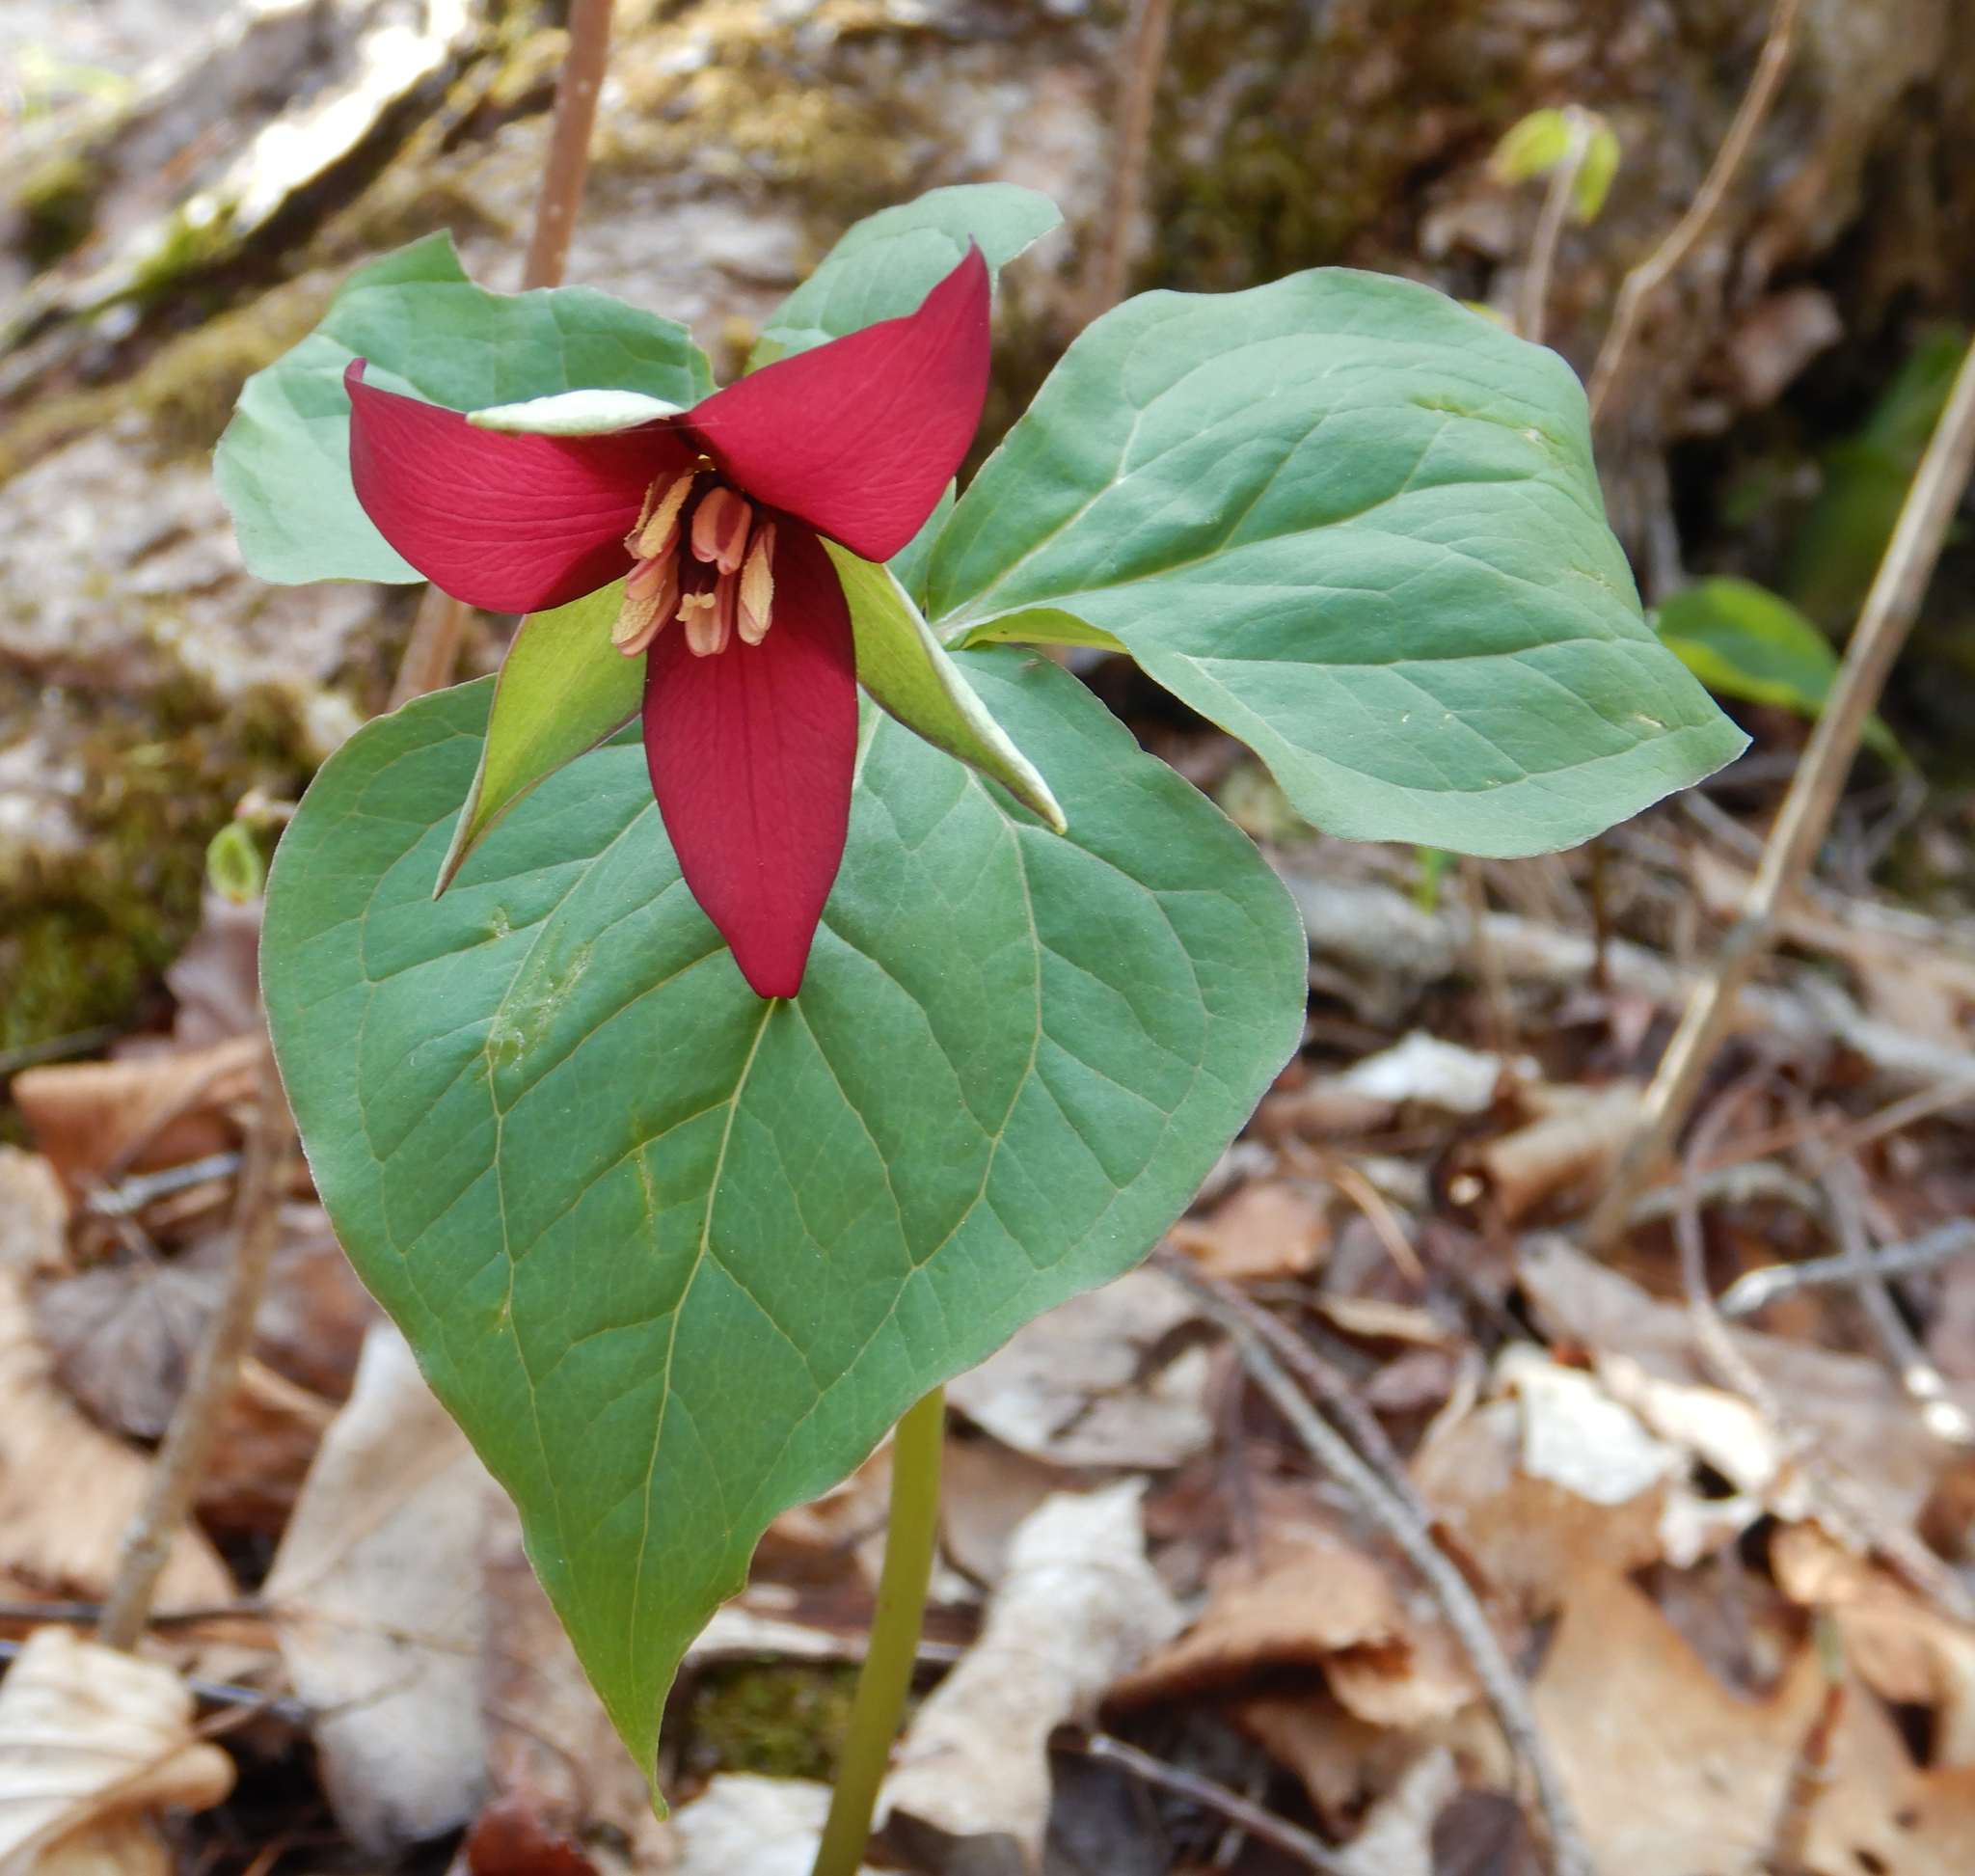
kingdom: Plantae
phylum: Tracheophyta
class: Liliopsida
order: Liliales
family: Melanthiaceae
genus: Trillium
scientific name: Trillium erectum
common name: Purple trillium
